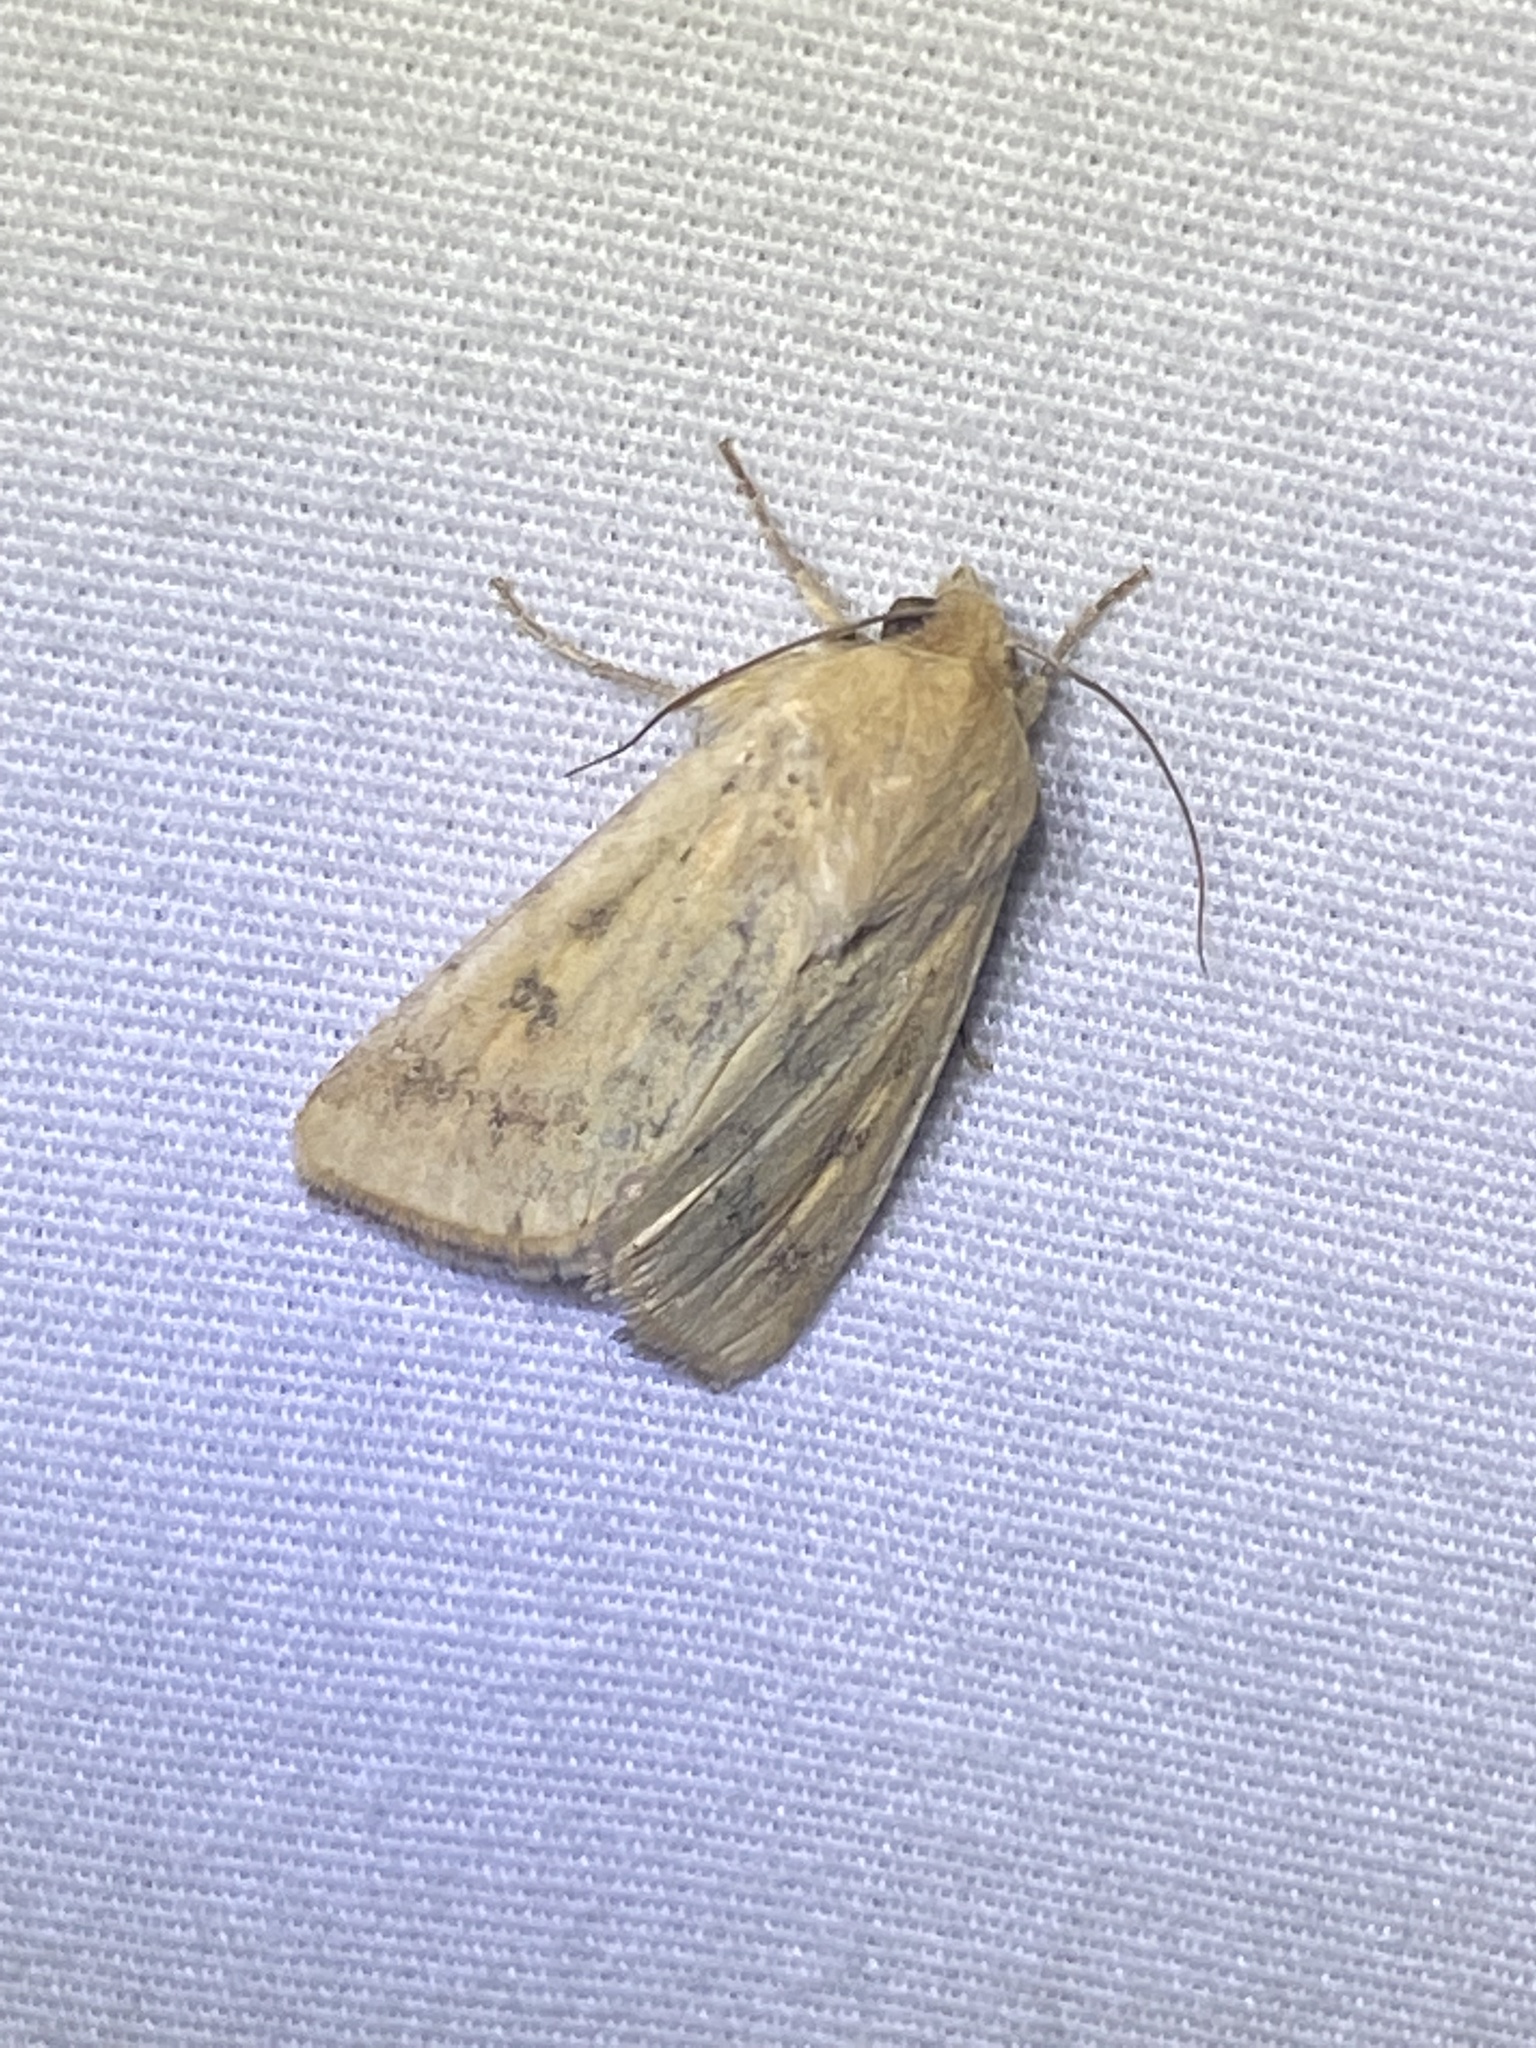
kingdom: Animalia
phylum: Arthropoda
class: Insecta
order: Lepidoptera
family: Noctuidae
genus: Helicoverpa
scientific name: Helicoverpa zea
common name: Bollworm
